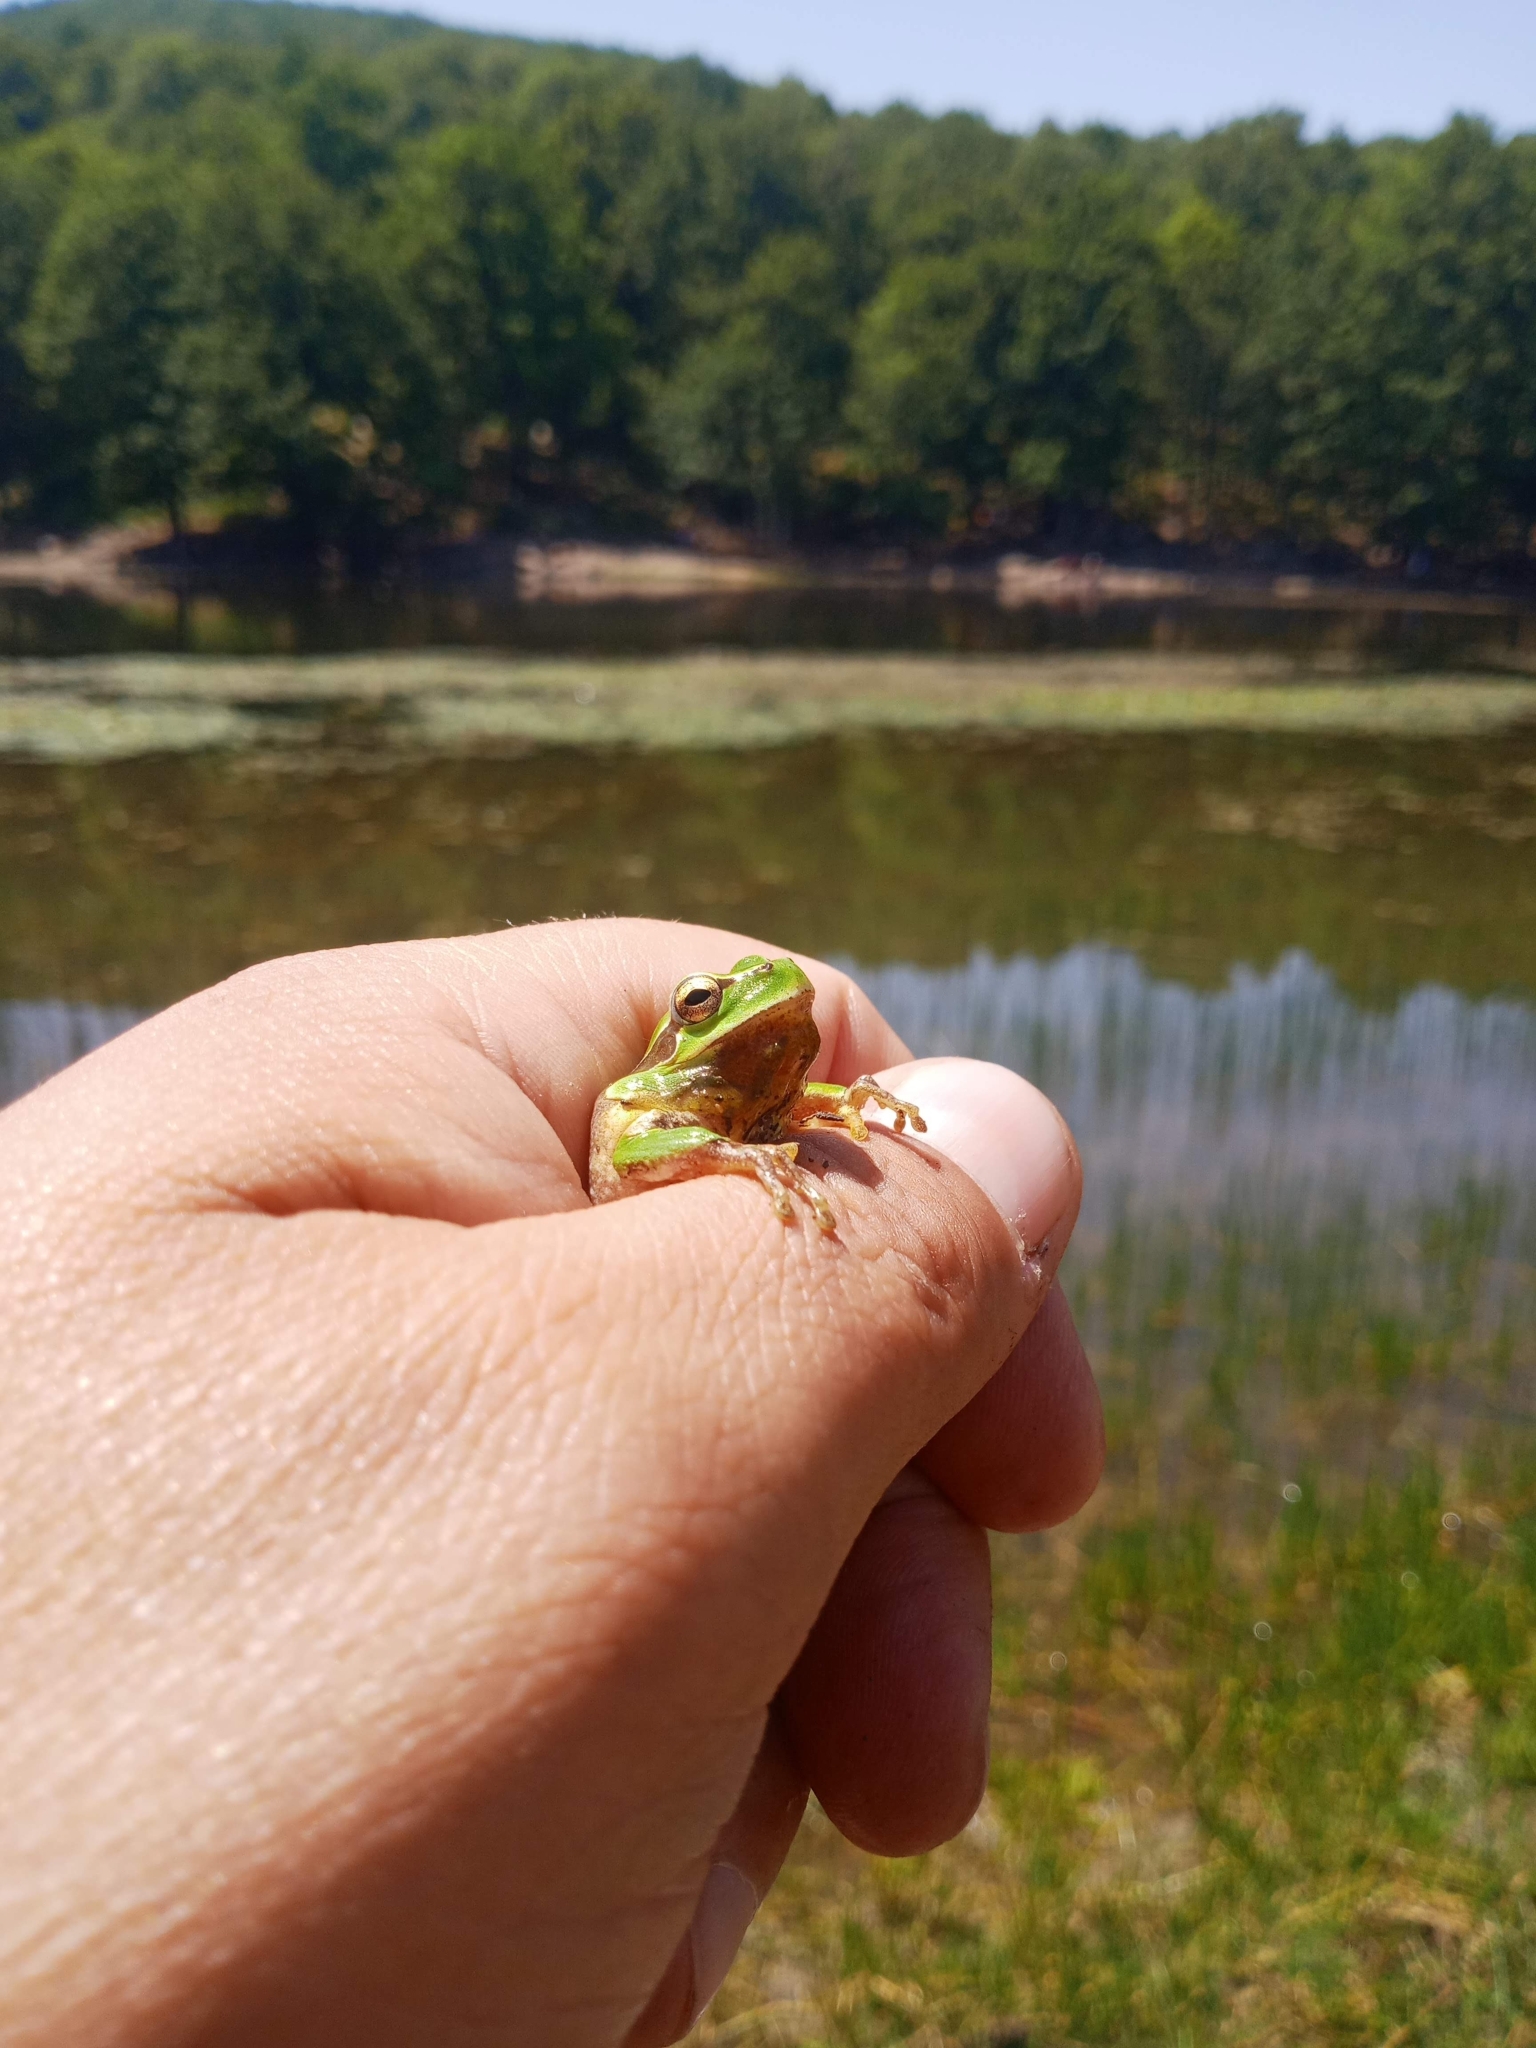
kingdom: Animalia
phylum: Chordata
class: Amphibia
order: Anura
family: Hylidae
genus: Hyla
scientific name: Hyla meridionalis
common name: Stripeless tree frog
